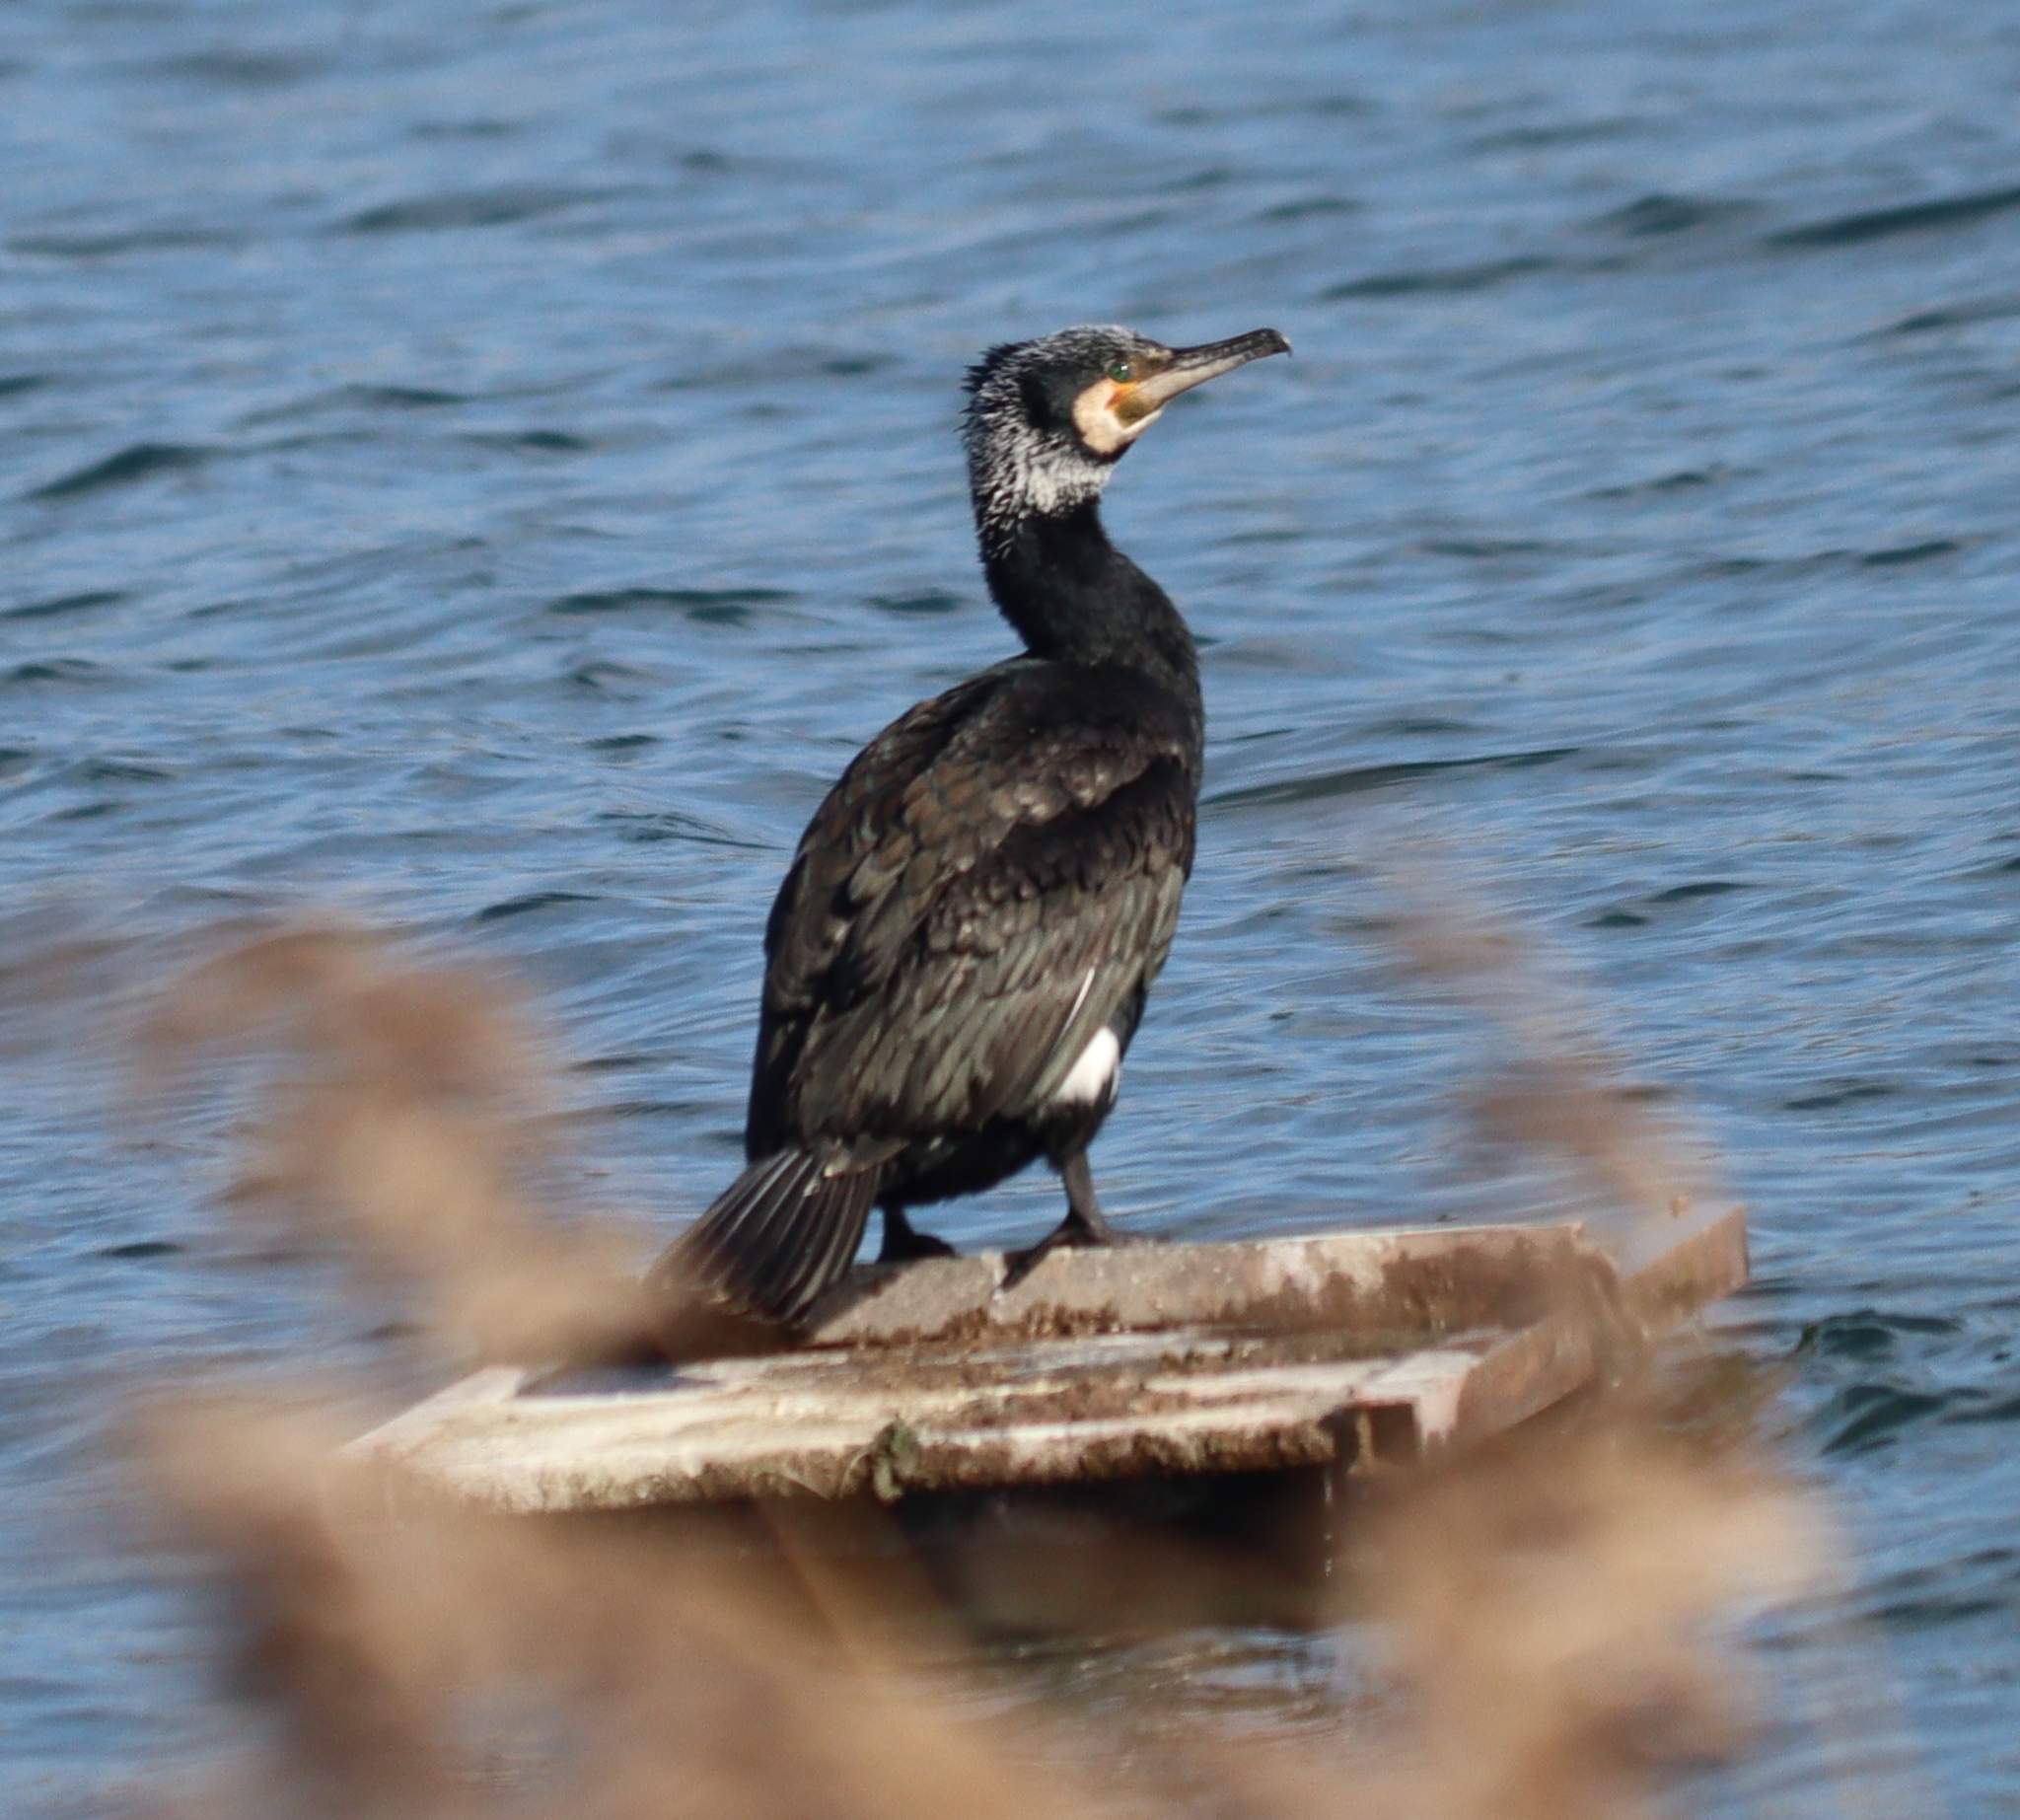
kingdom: Animalia
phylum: Chordata
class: Aves
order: Suliformes
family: Phalacrocoracidae
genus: Phalacrocorax
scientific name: Phalacrocorax carbo
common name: Great cormorant
